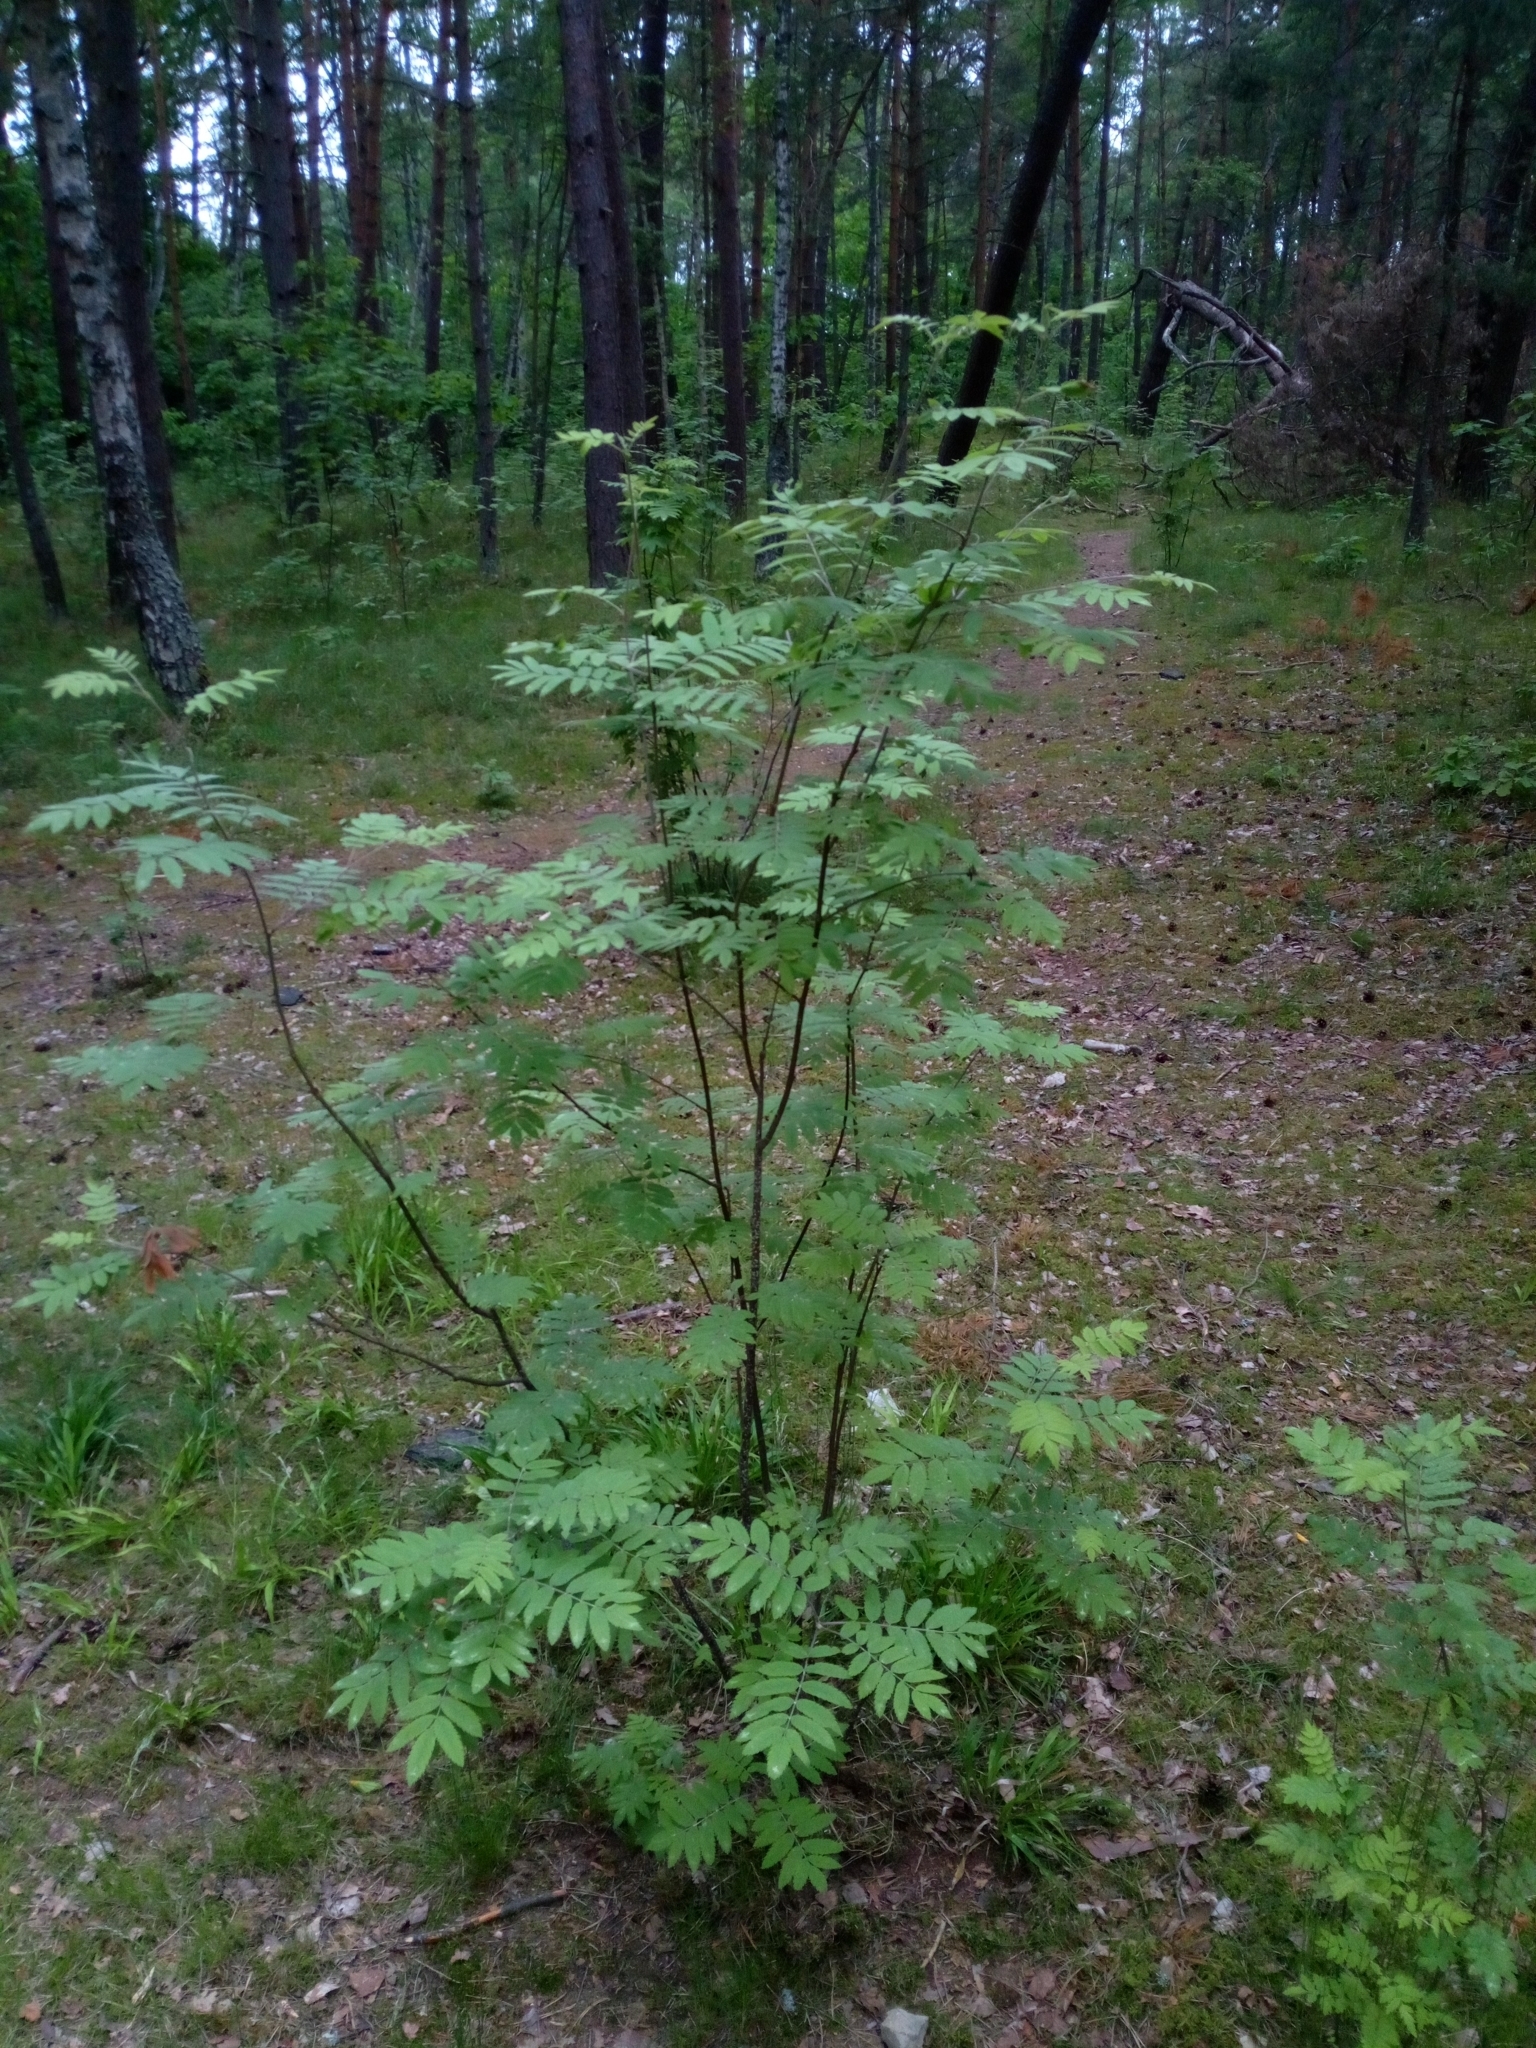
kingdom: Plantae
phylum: Tracheophyta
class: Magnoliopsida
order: Rosales
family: Rosaceae
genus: Sorbus
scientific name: Sorbus aucuparia
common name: Rowan
